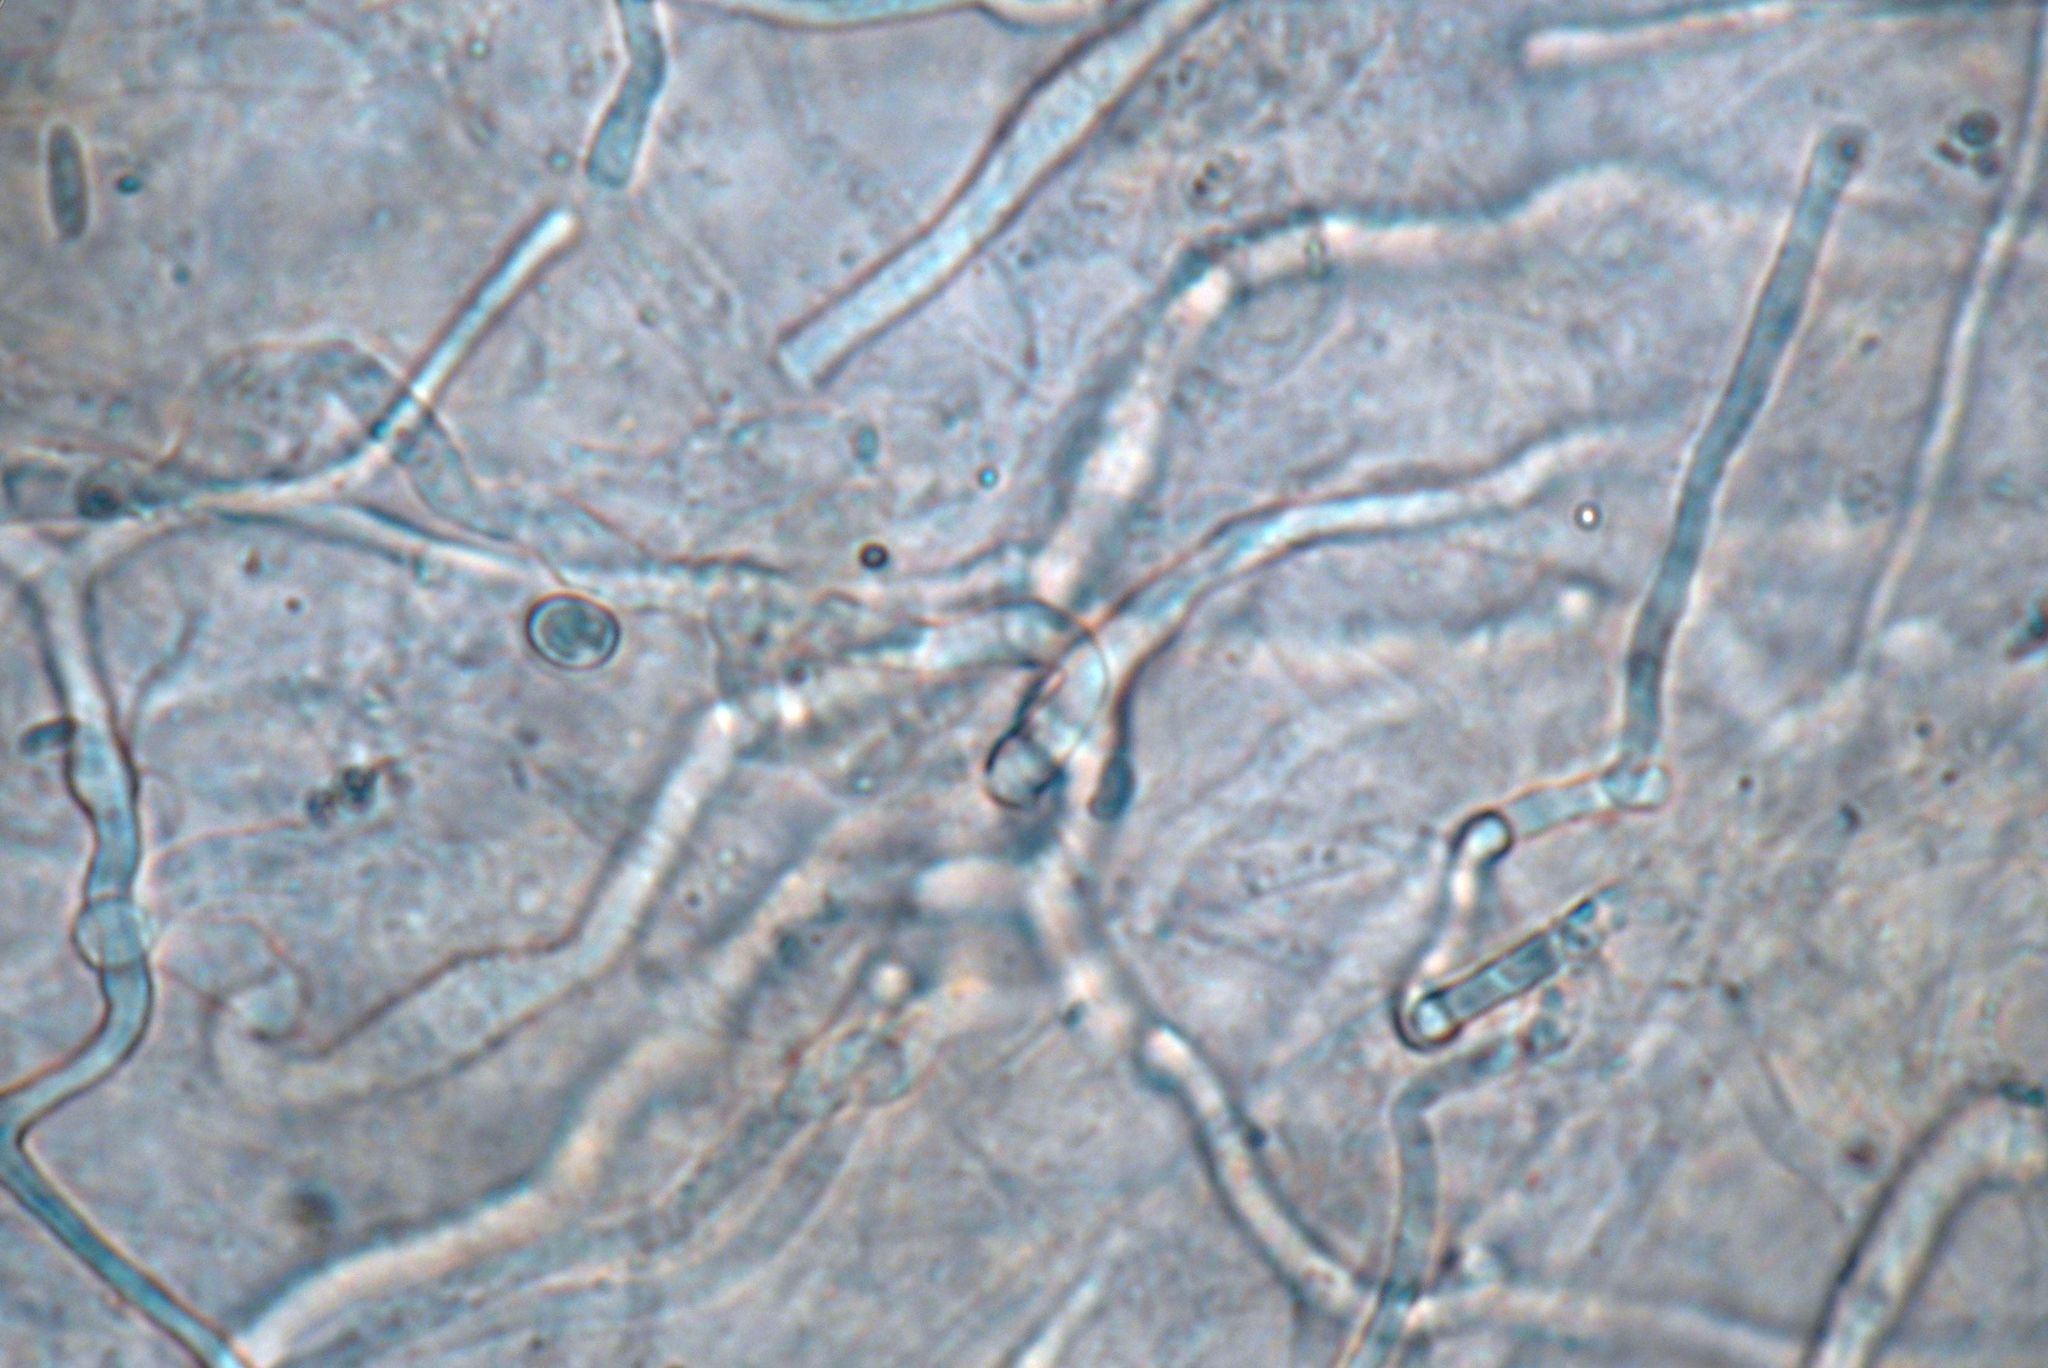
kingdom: Fungi
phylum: Basidiomycota
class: Agaricomycetes
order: Agaricales
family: Pluteaceae
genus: Pluteus
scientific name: Pluteus readiarum
